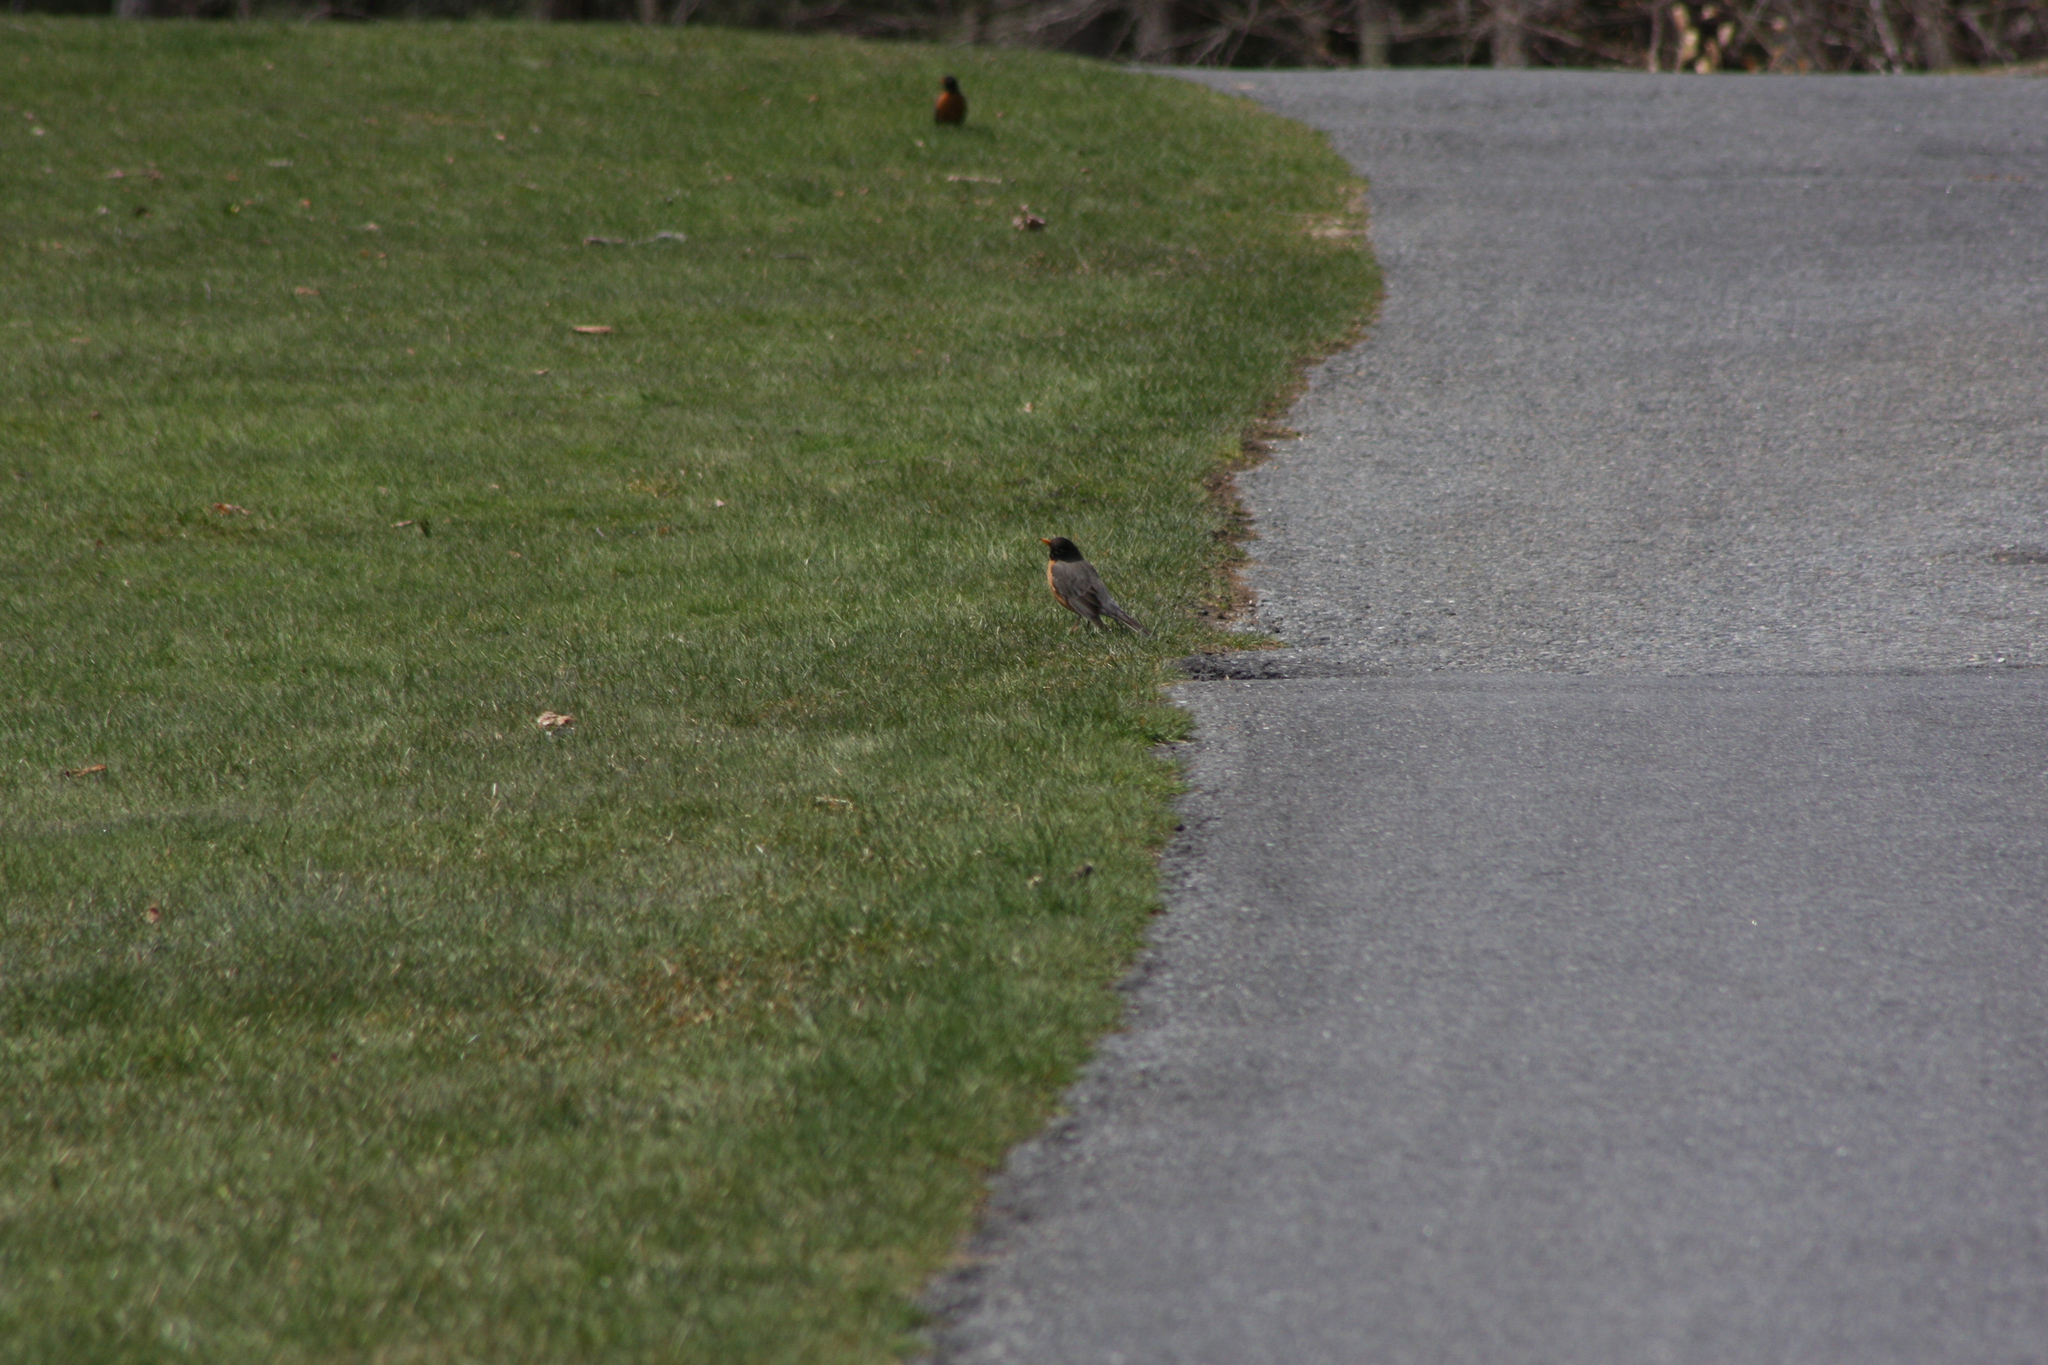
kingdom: Animalia
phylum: Chordata
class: Aves
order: Passeriformes
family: Turdidae
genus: Turdus
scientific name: Turdus migratorius
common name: American robin
